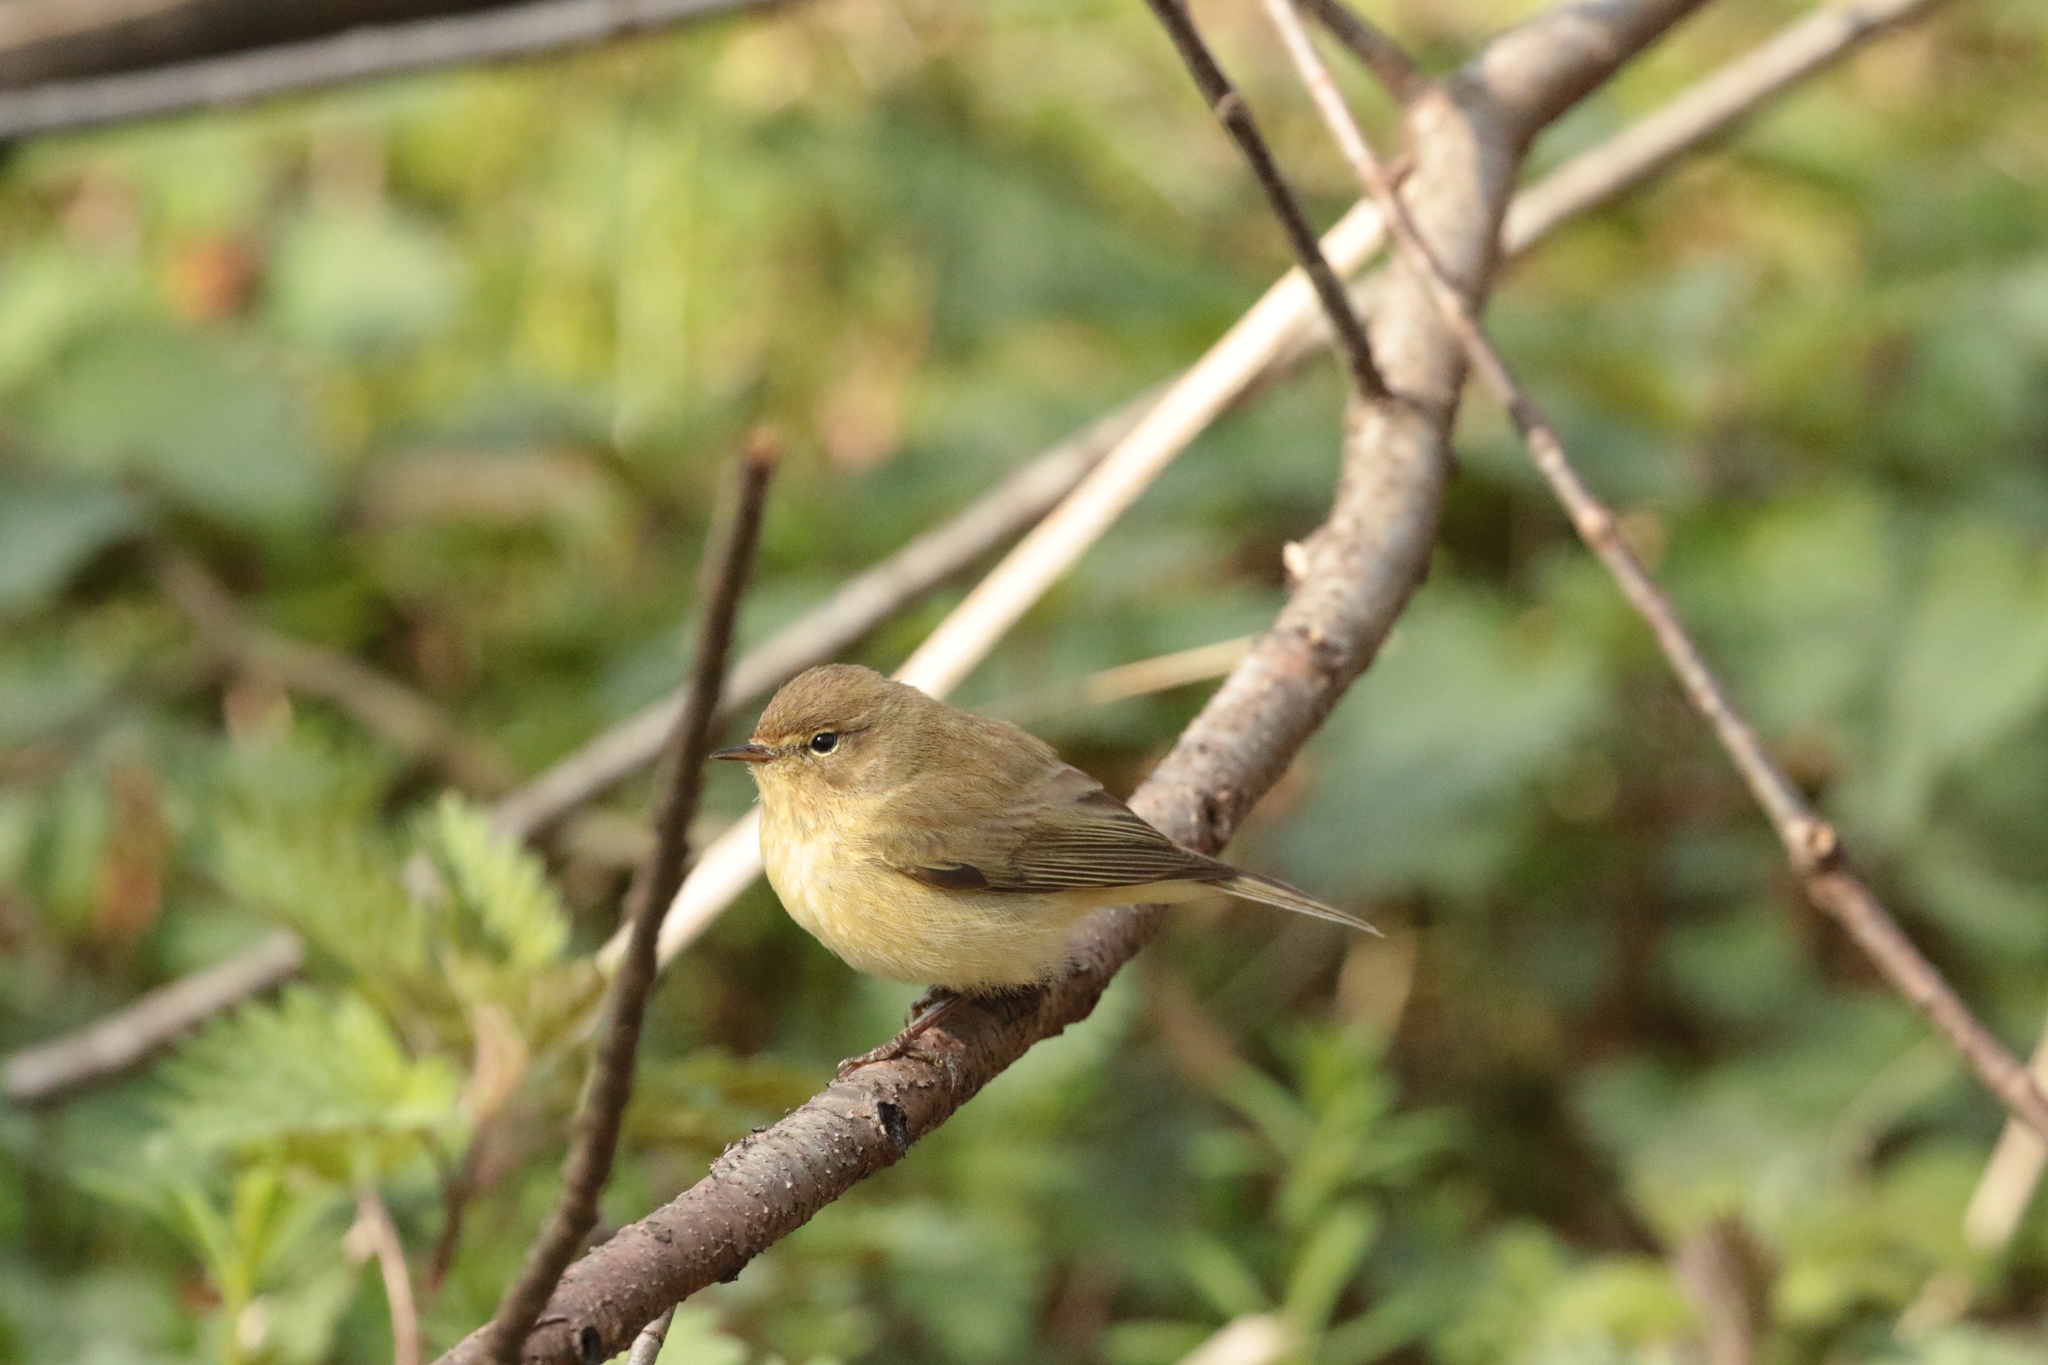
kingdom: Animalia
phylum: Chordata
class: Aves
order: Passeriformes
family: Phylloscopidae
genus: Phylloscopus
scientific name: Phylloscopus collybita
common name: Common chiffchaff
